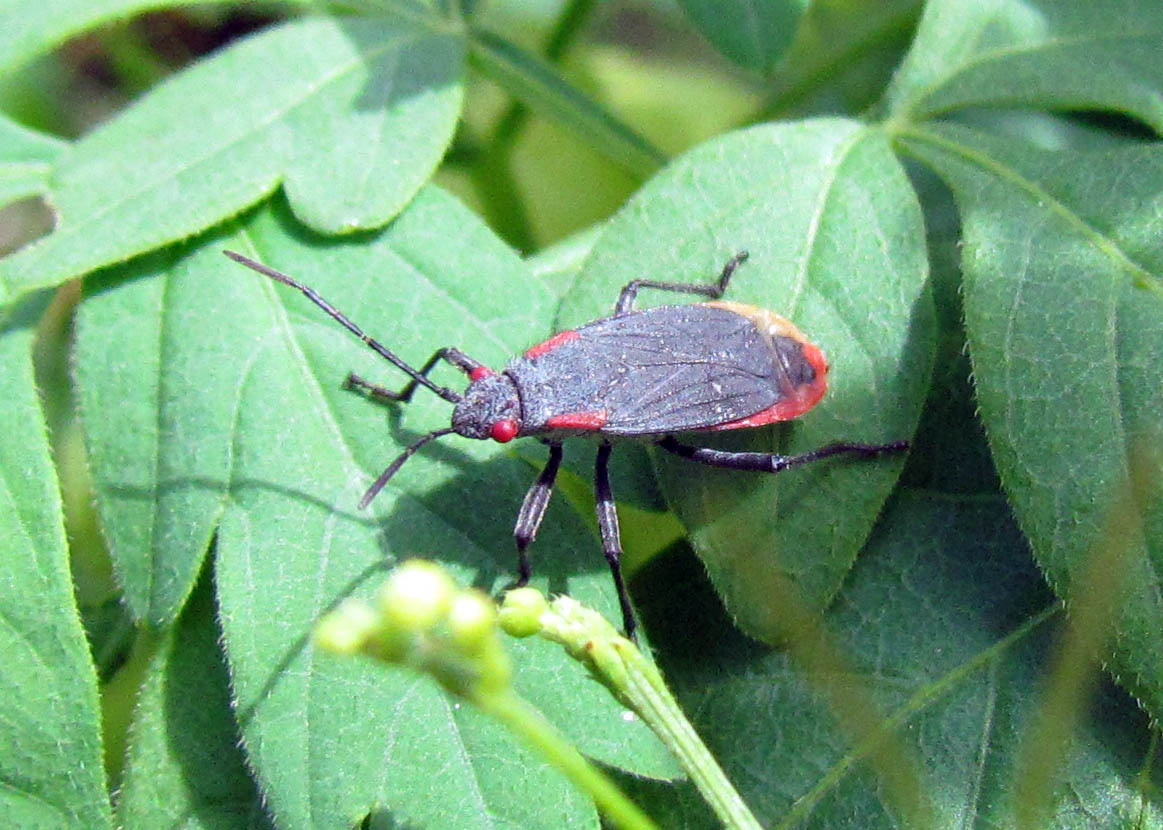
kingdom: Animalia
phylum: Arthropoda
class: Insecta
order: Hemiptera
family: Rhopalidae
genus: Jadera
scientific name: Jadera haematoloma
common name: Red-shouldered bug
